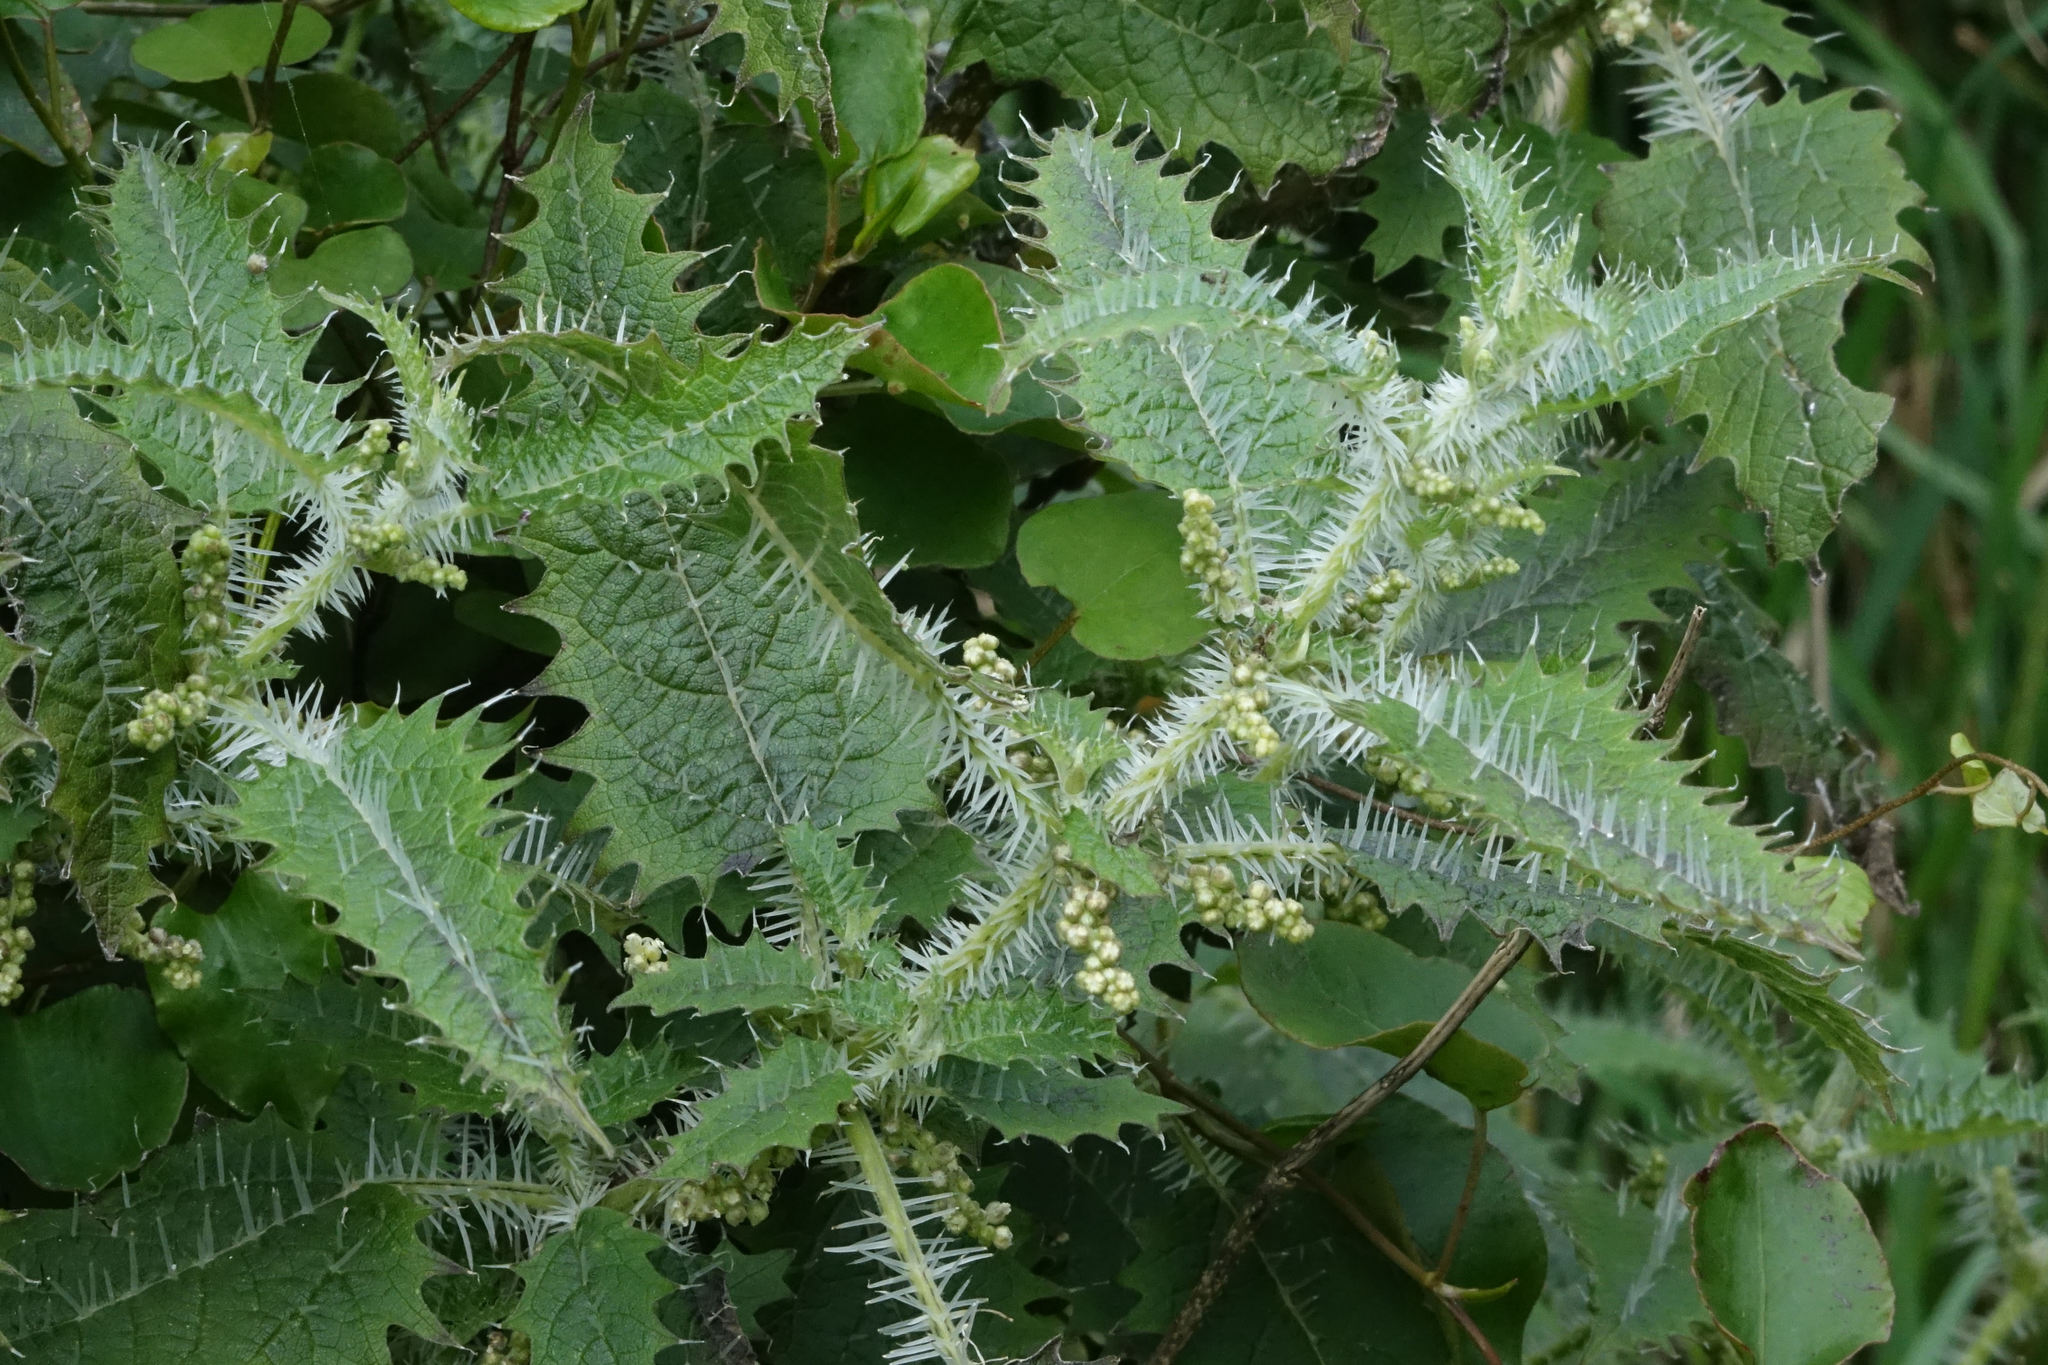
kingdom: Plantae
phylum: Tracheophyta
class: Magnoliopsida
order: Rosales
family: Urticaceae
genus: Urtica
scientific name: Urtica ferox
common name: Tree nettle
